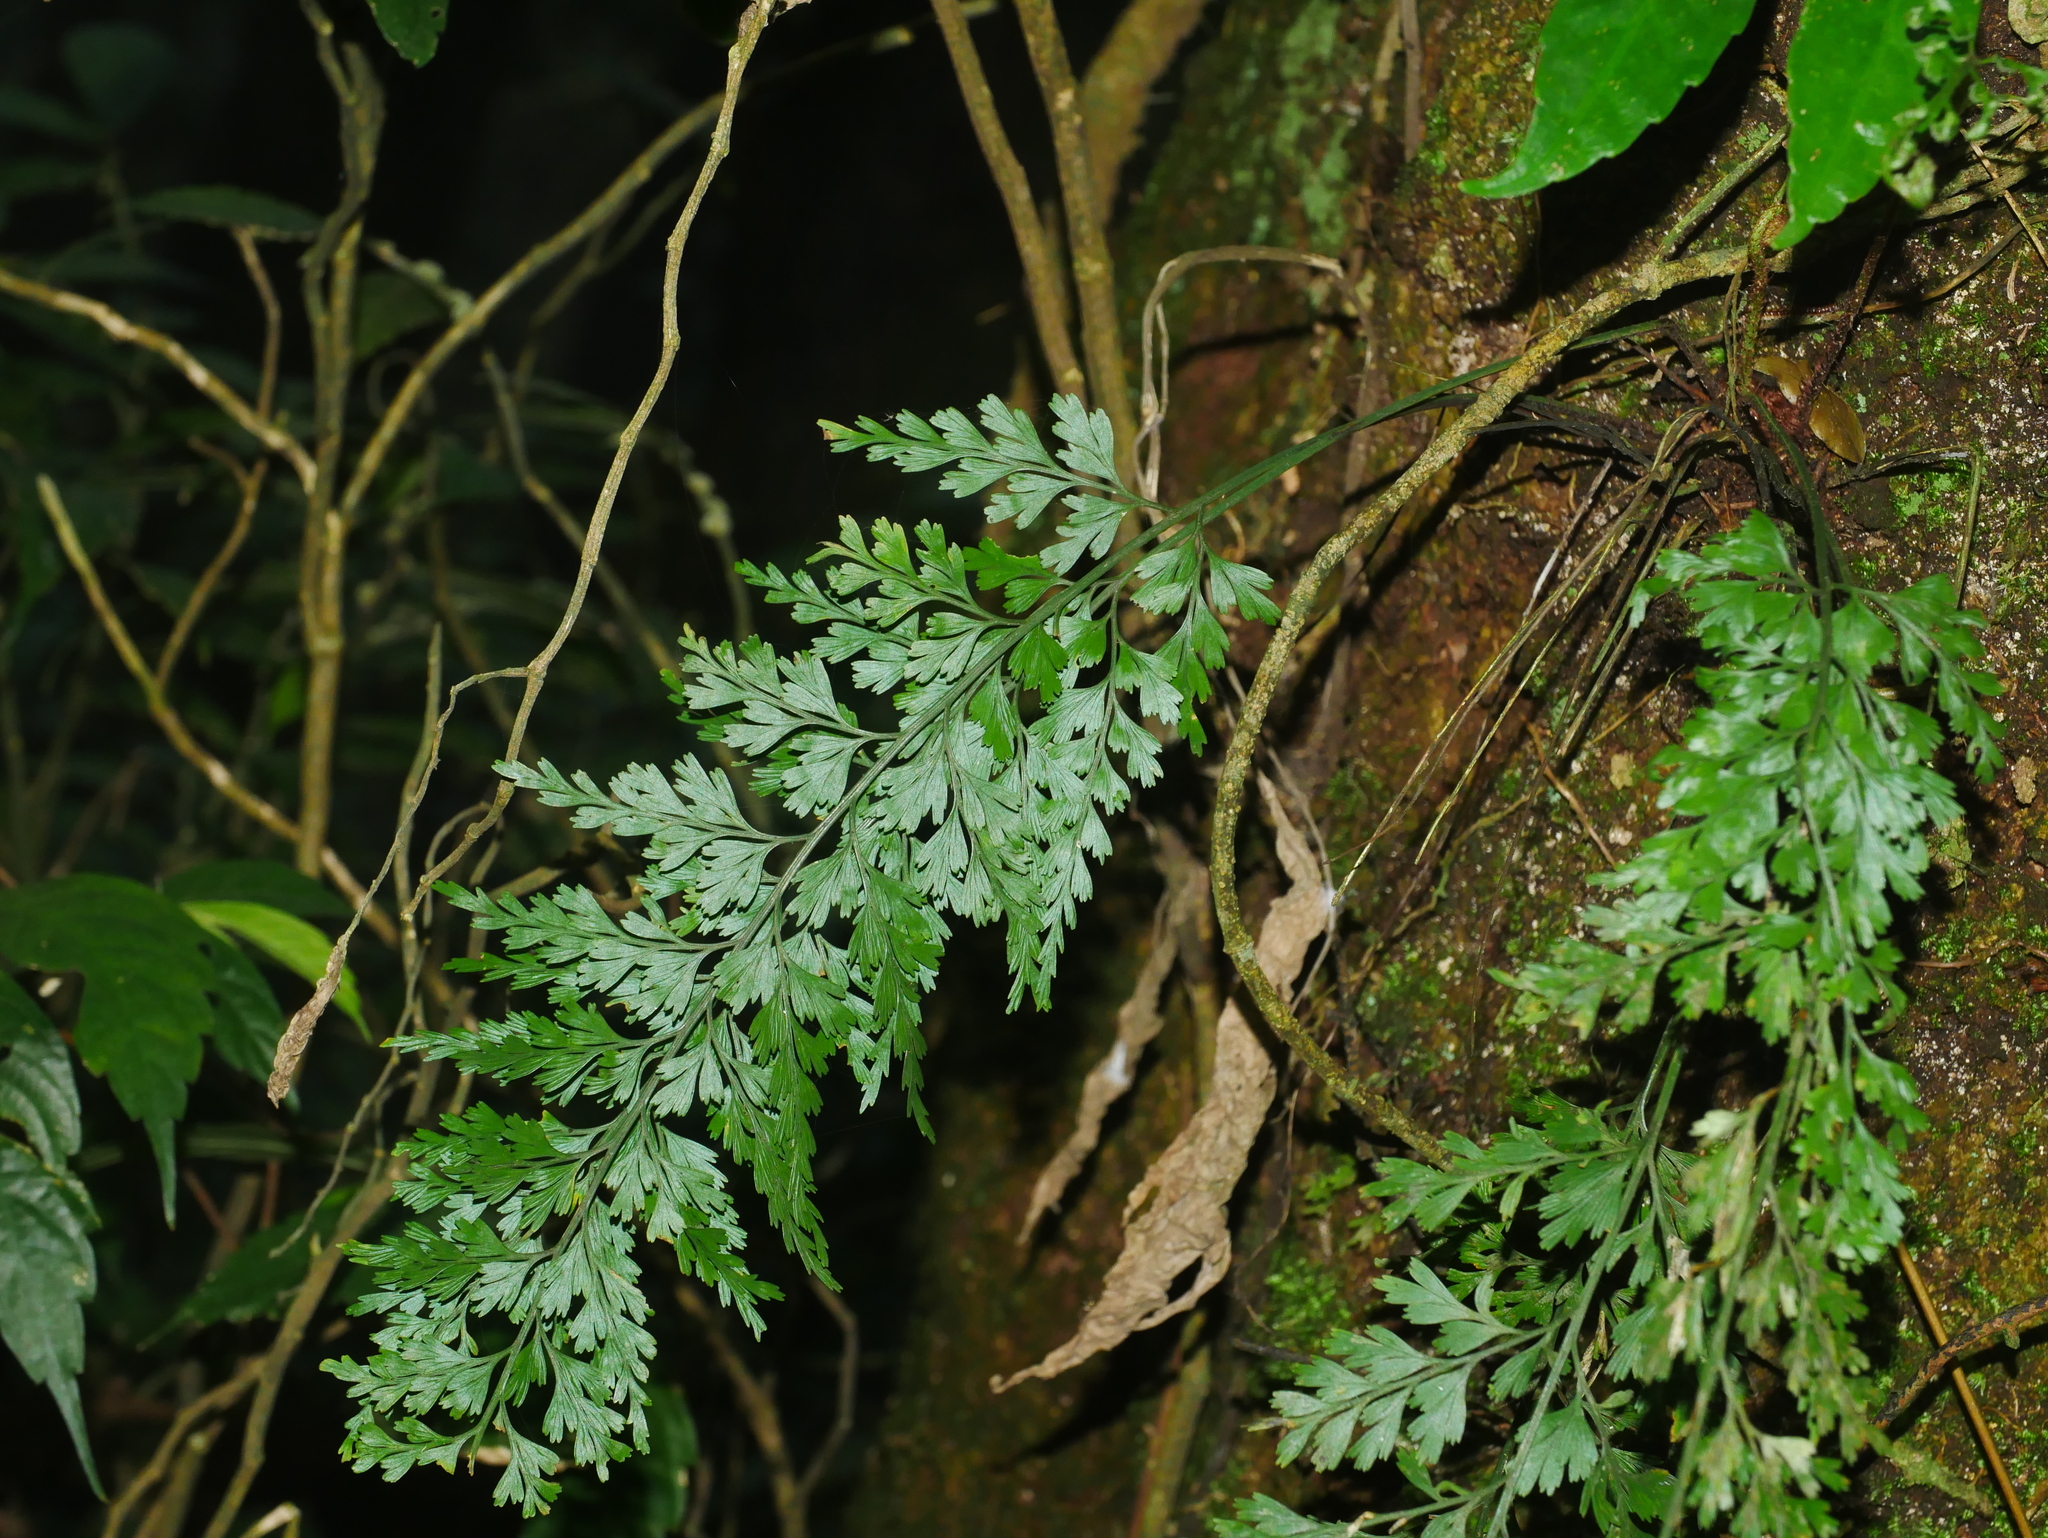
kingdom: Plantae
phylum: Tracheophyta
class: Polypodiopsida
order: Polypodiales
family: Aspleniaceae
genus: Asplenium
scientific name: Asplenium wilfordii
